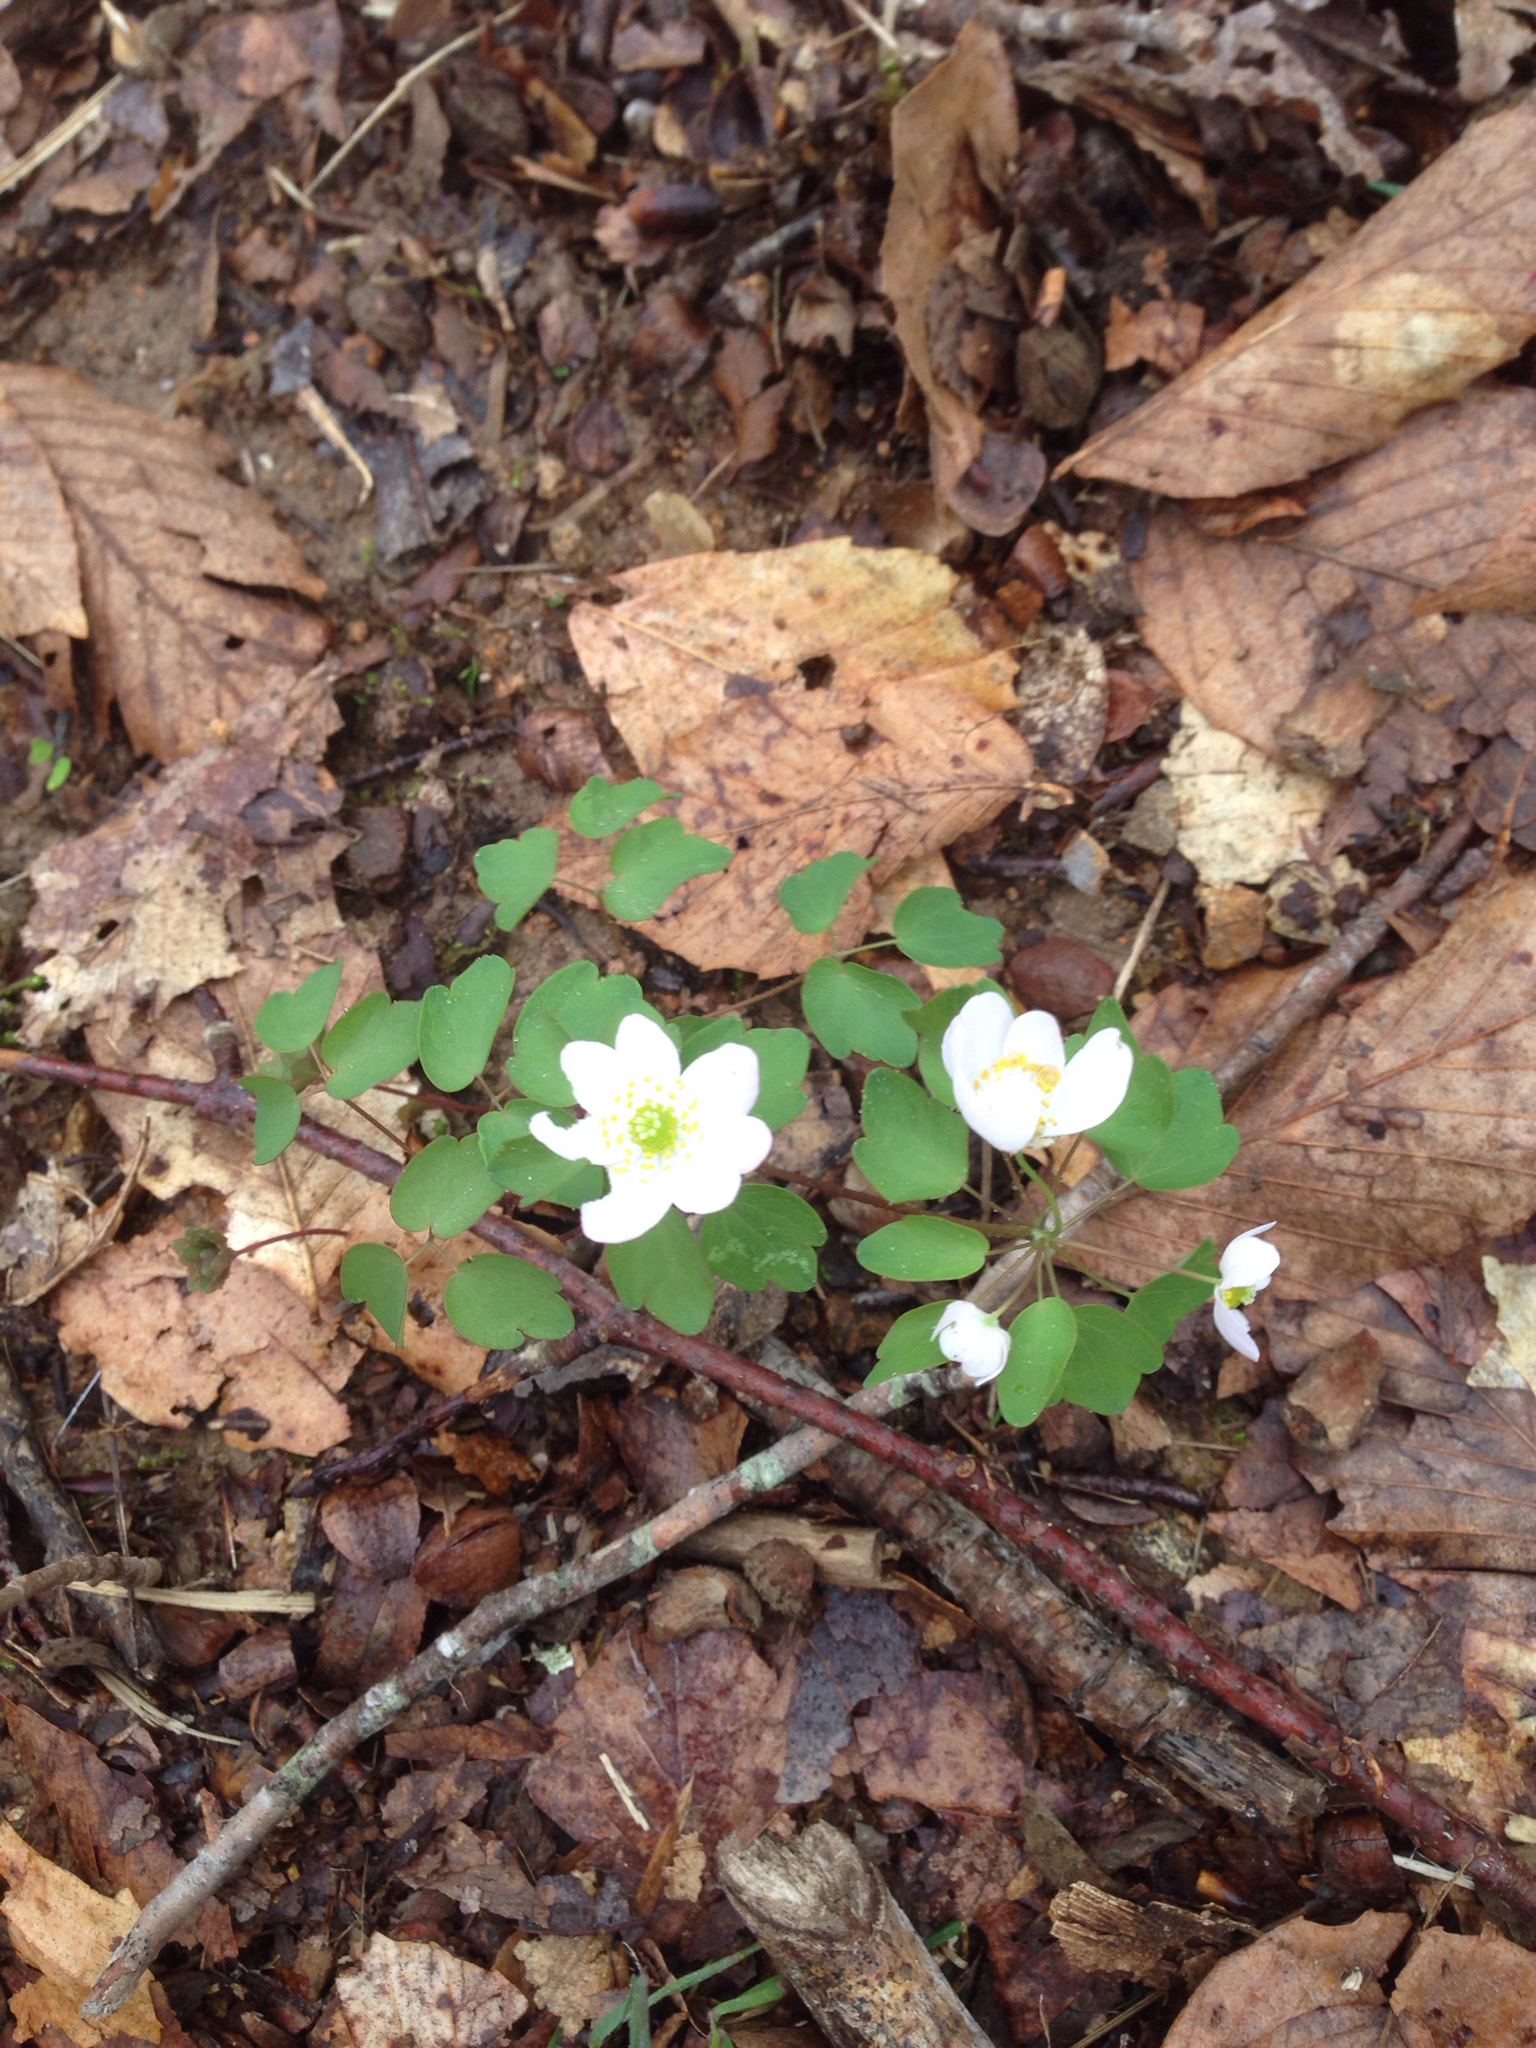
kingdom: Plantae
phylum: Tracheophyta
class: Magnoliopsida
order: Ranunculales
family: Ranunculaceae
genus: Thalictrum
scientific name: Thalictrum thalictroides
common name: Rue-anemone
